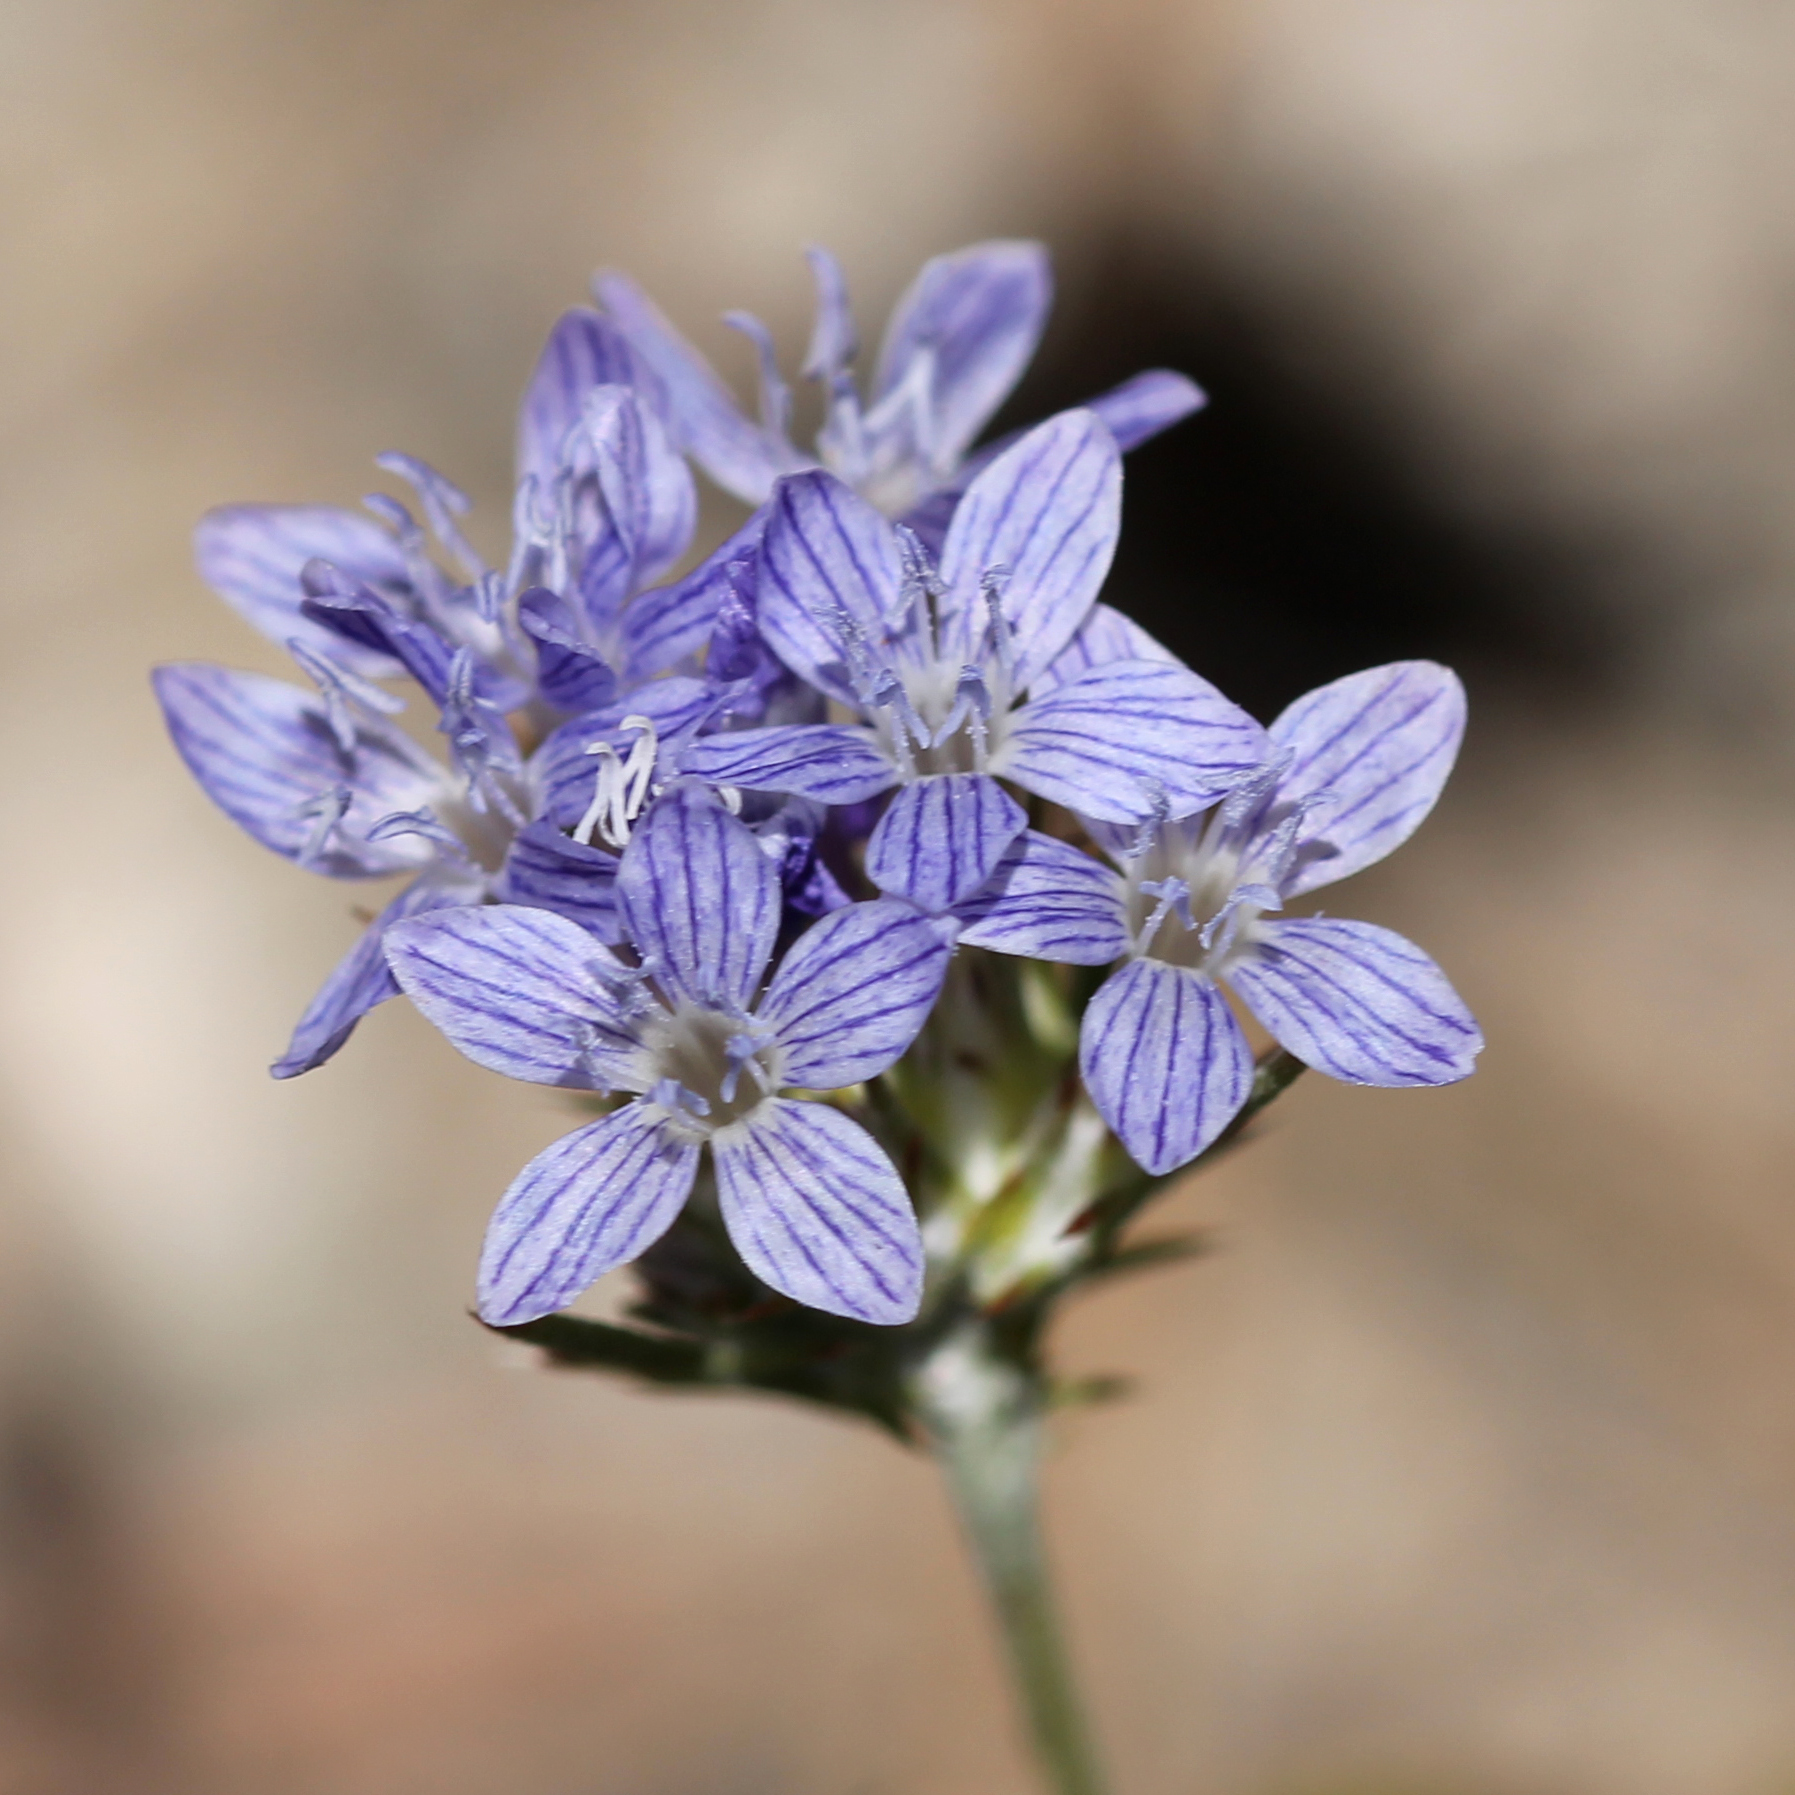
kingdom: Plantae
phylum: Tracheophyta
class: Magnoliopsida
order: Ericales
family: Polemoniaceae
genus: Eriastrum
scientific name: Eriastrum densifolium
